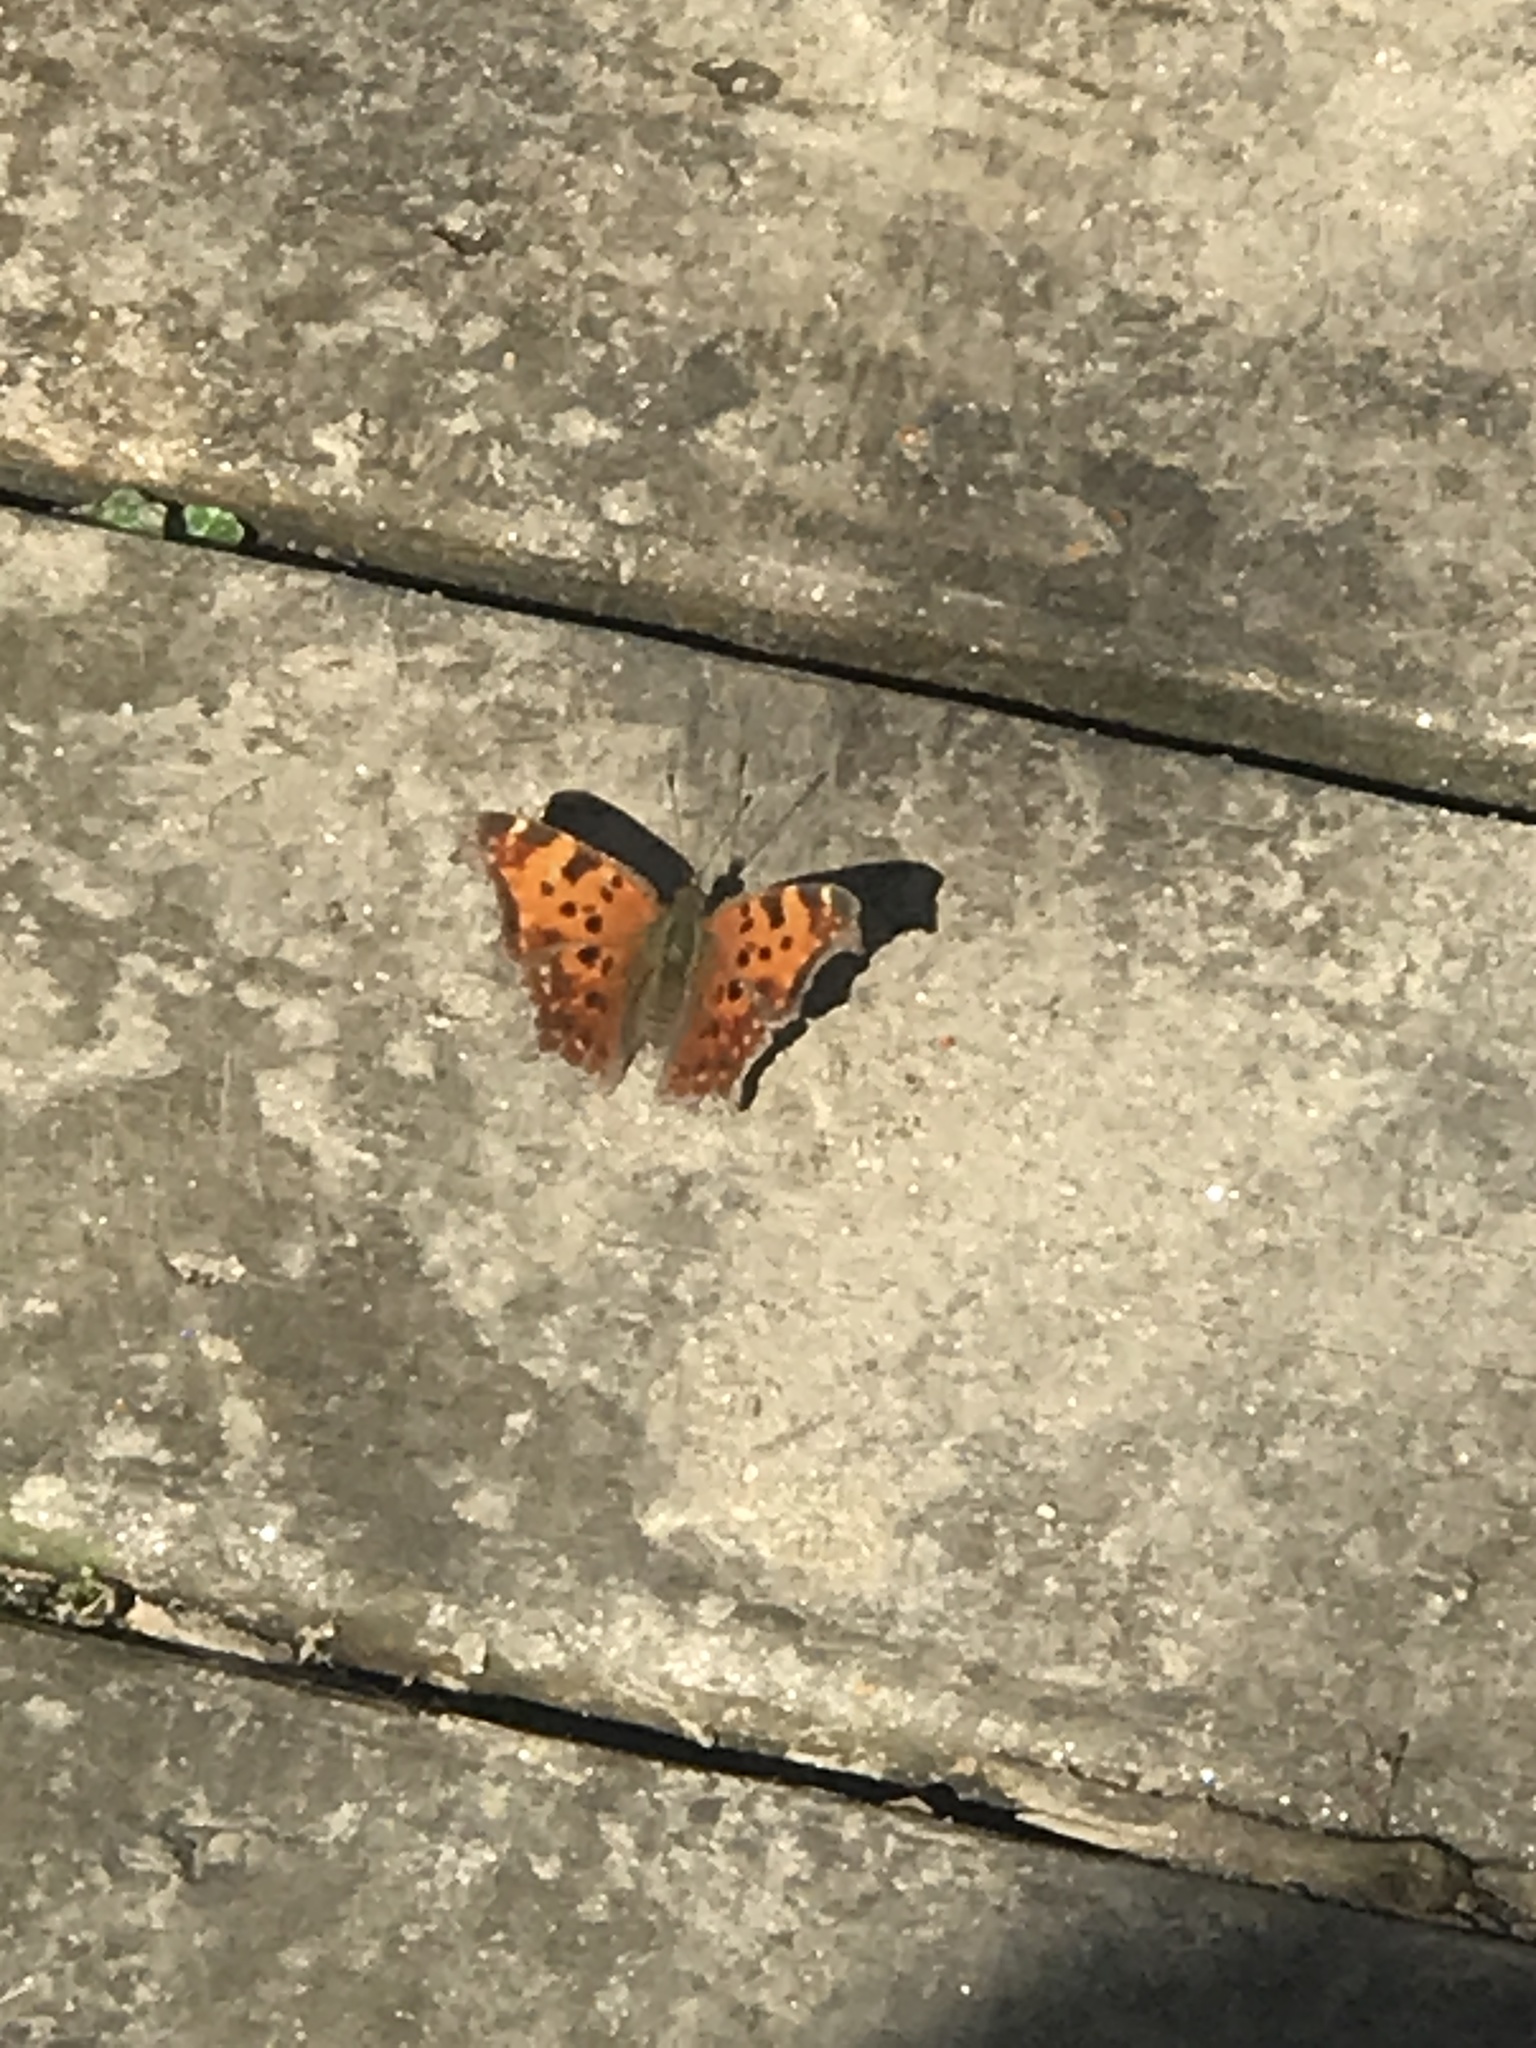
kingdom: Animalia
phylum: Arthropoda
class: Insecta
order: Lepidoptera
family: Nymphalidae
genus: Polygonia
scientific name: Polygonia comma
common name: Eastern comma
